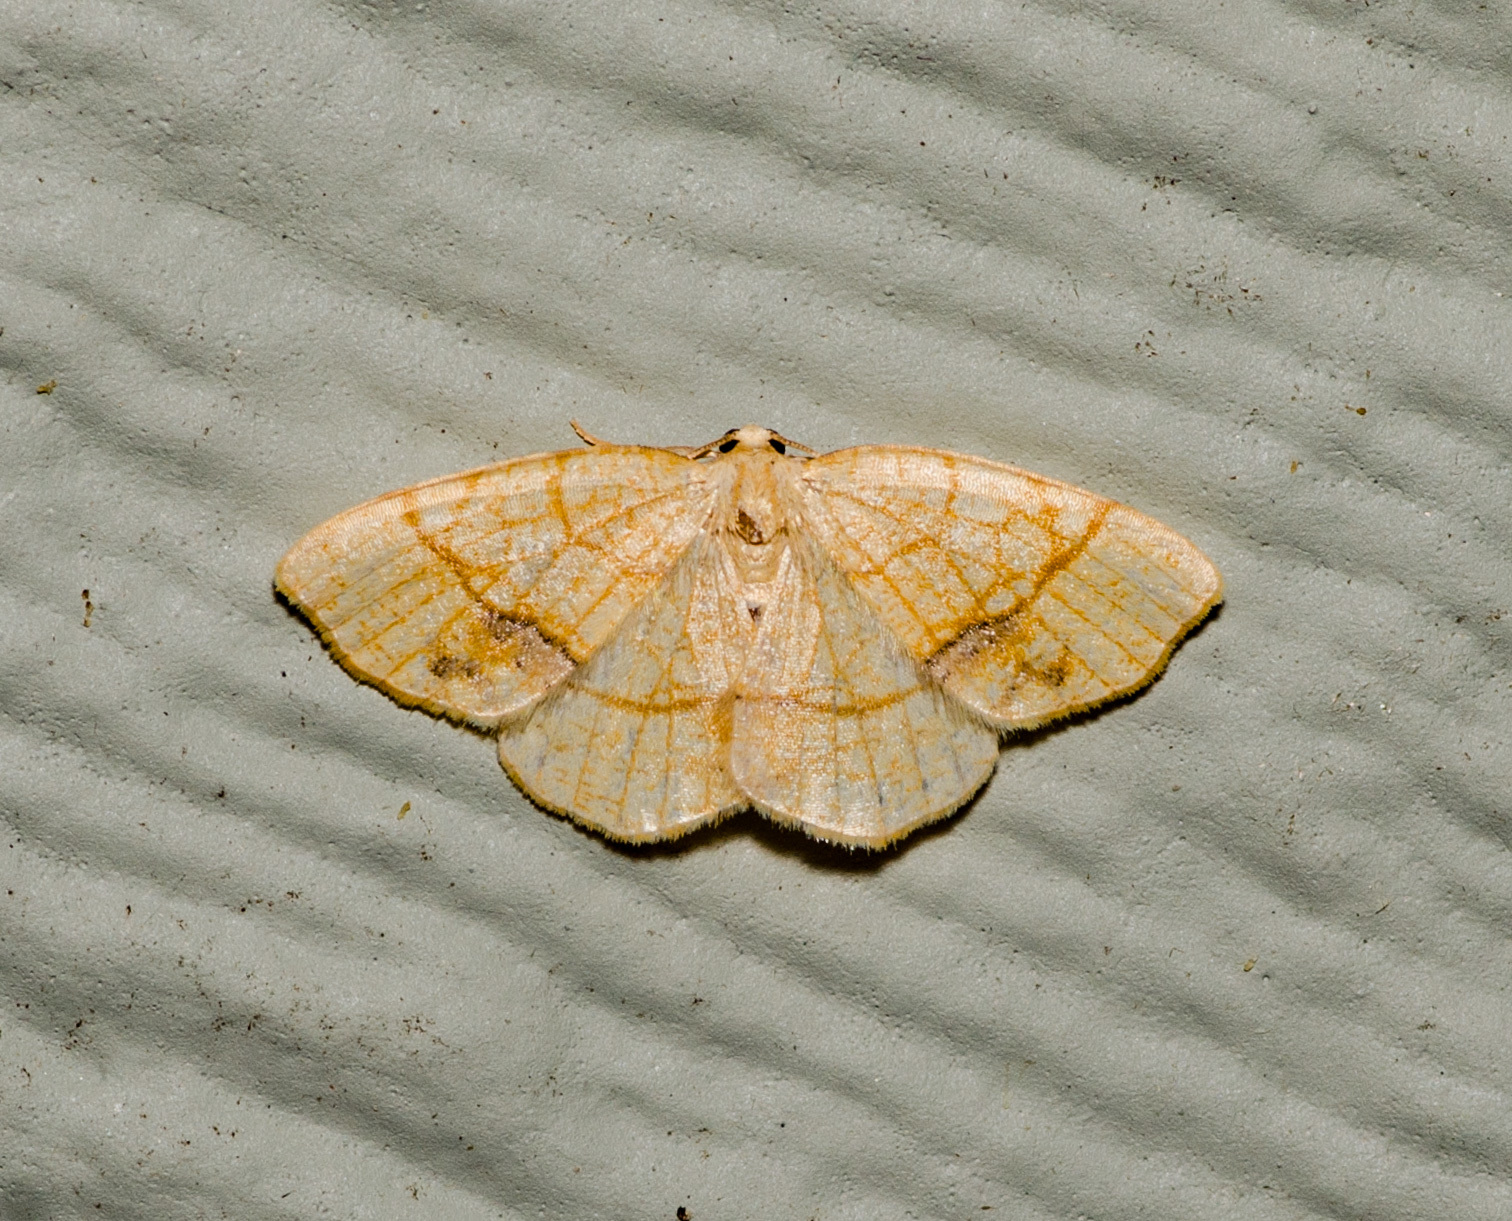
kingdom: Animalia
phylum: Arthropoda
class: Insecta
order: Lepidoptera
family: Geometridae
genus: Nematocampa
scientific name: Nematocampa resistaria
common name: Horned spanworm moth
